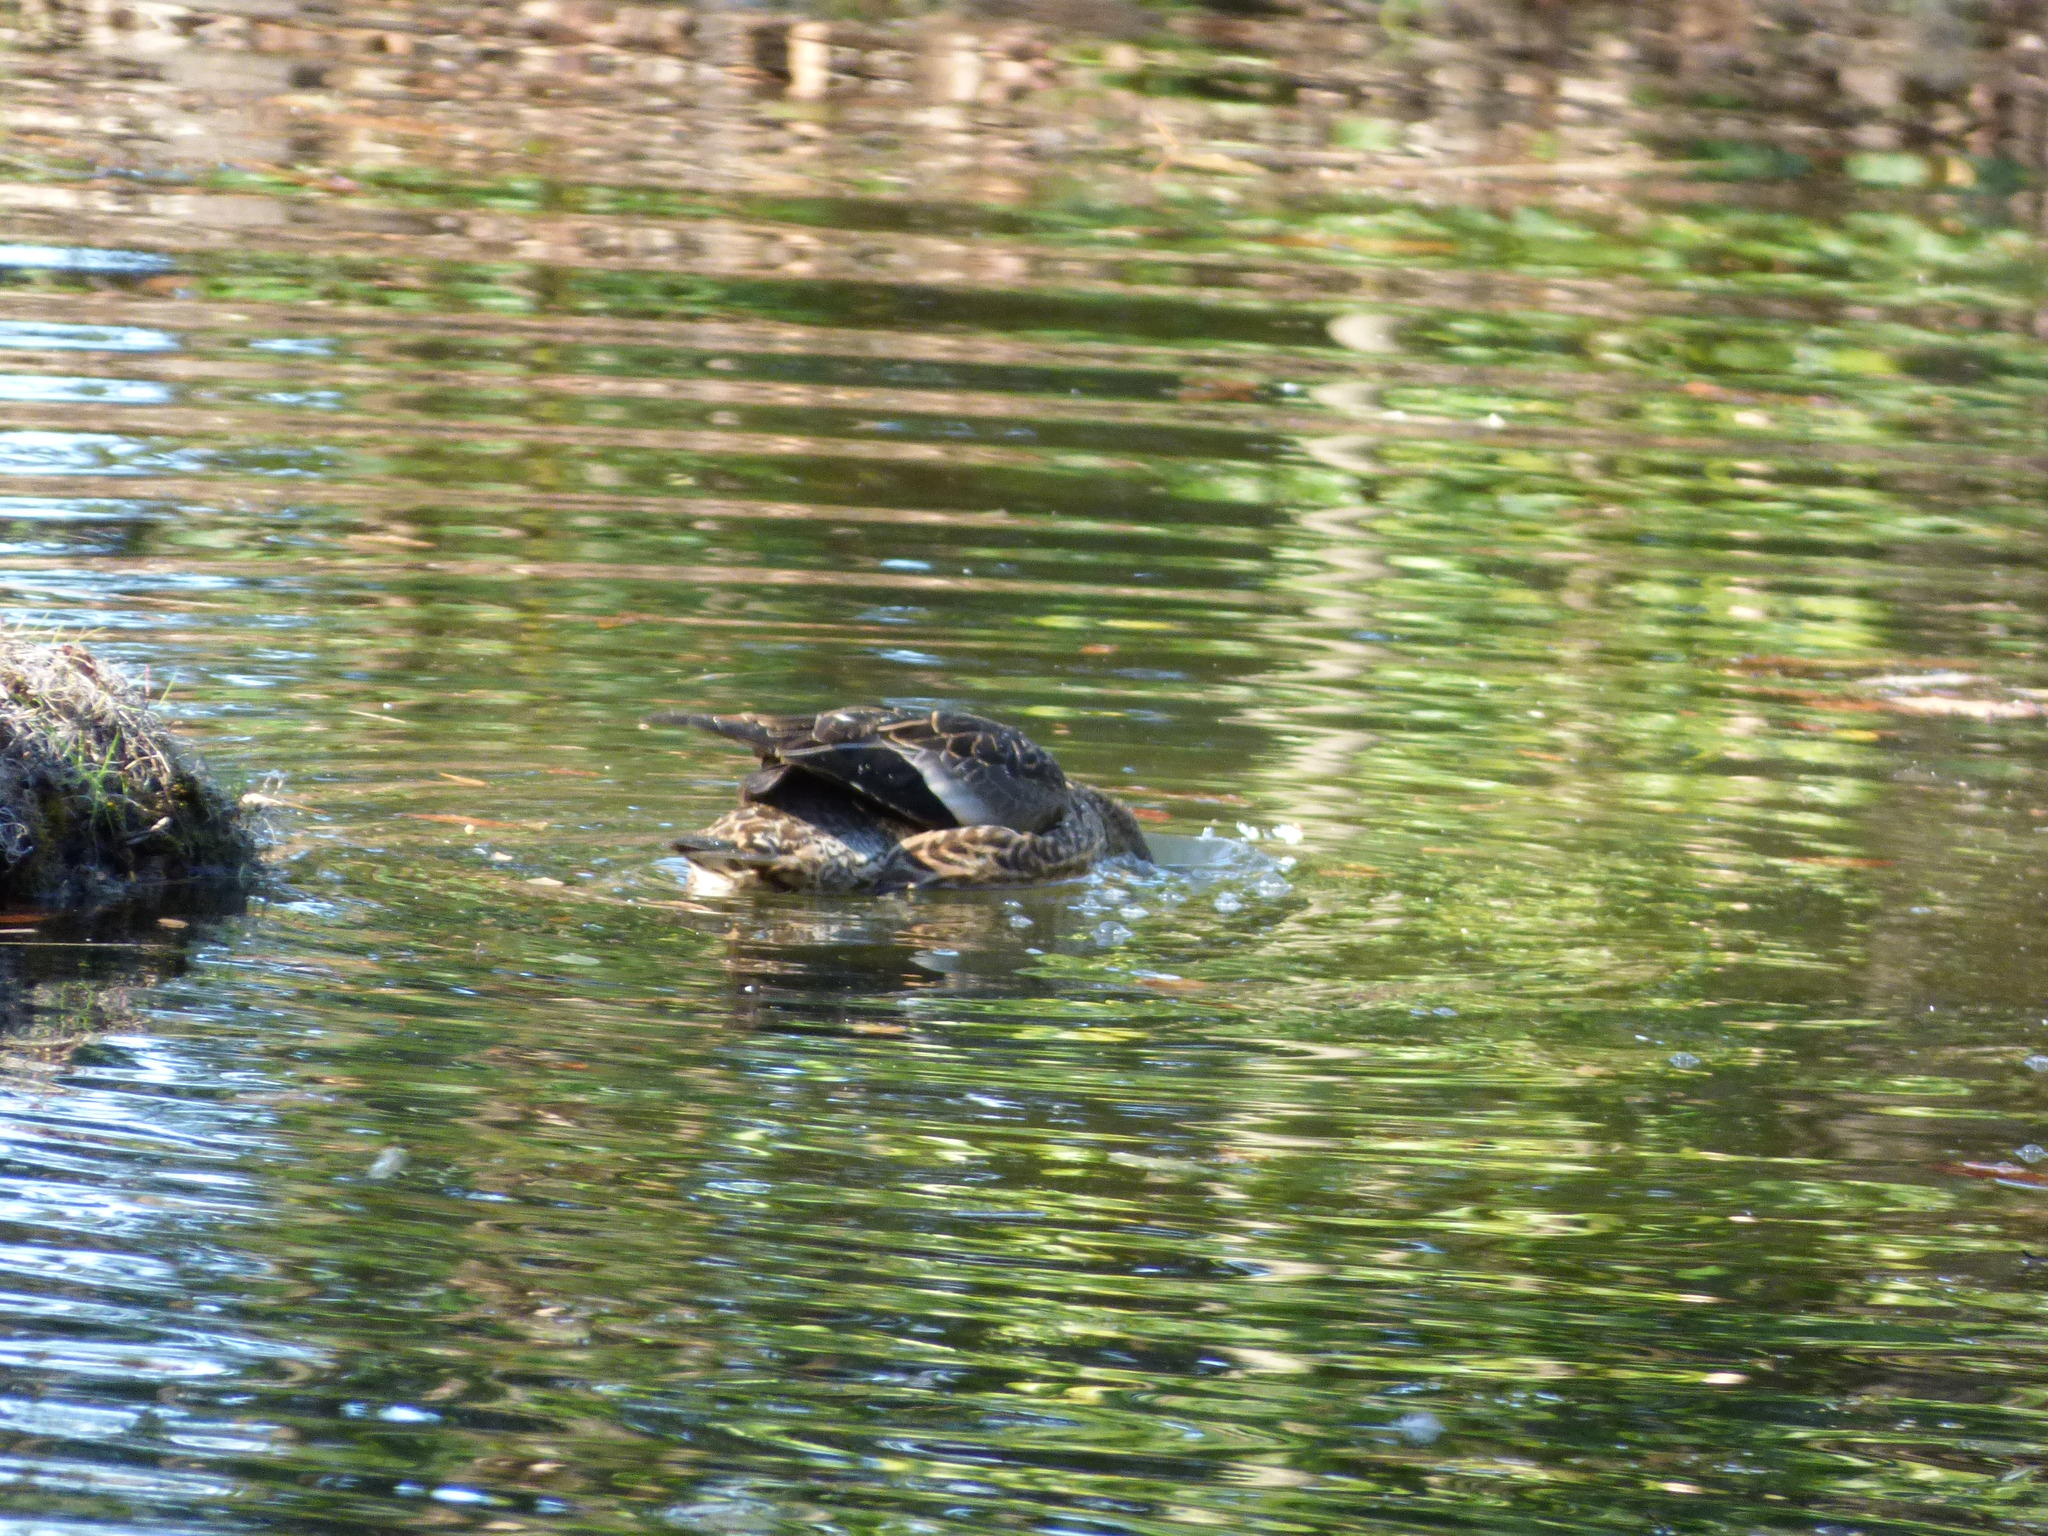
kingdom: Animalia
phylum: Chordata
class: Aves
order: Anseriformes
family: Anatidae
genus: Mareca
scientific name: Mareca falcata
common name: Falcated duck
